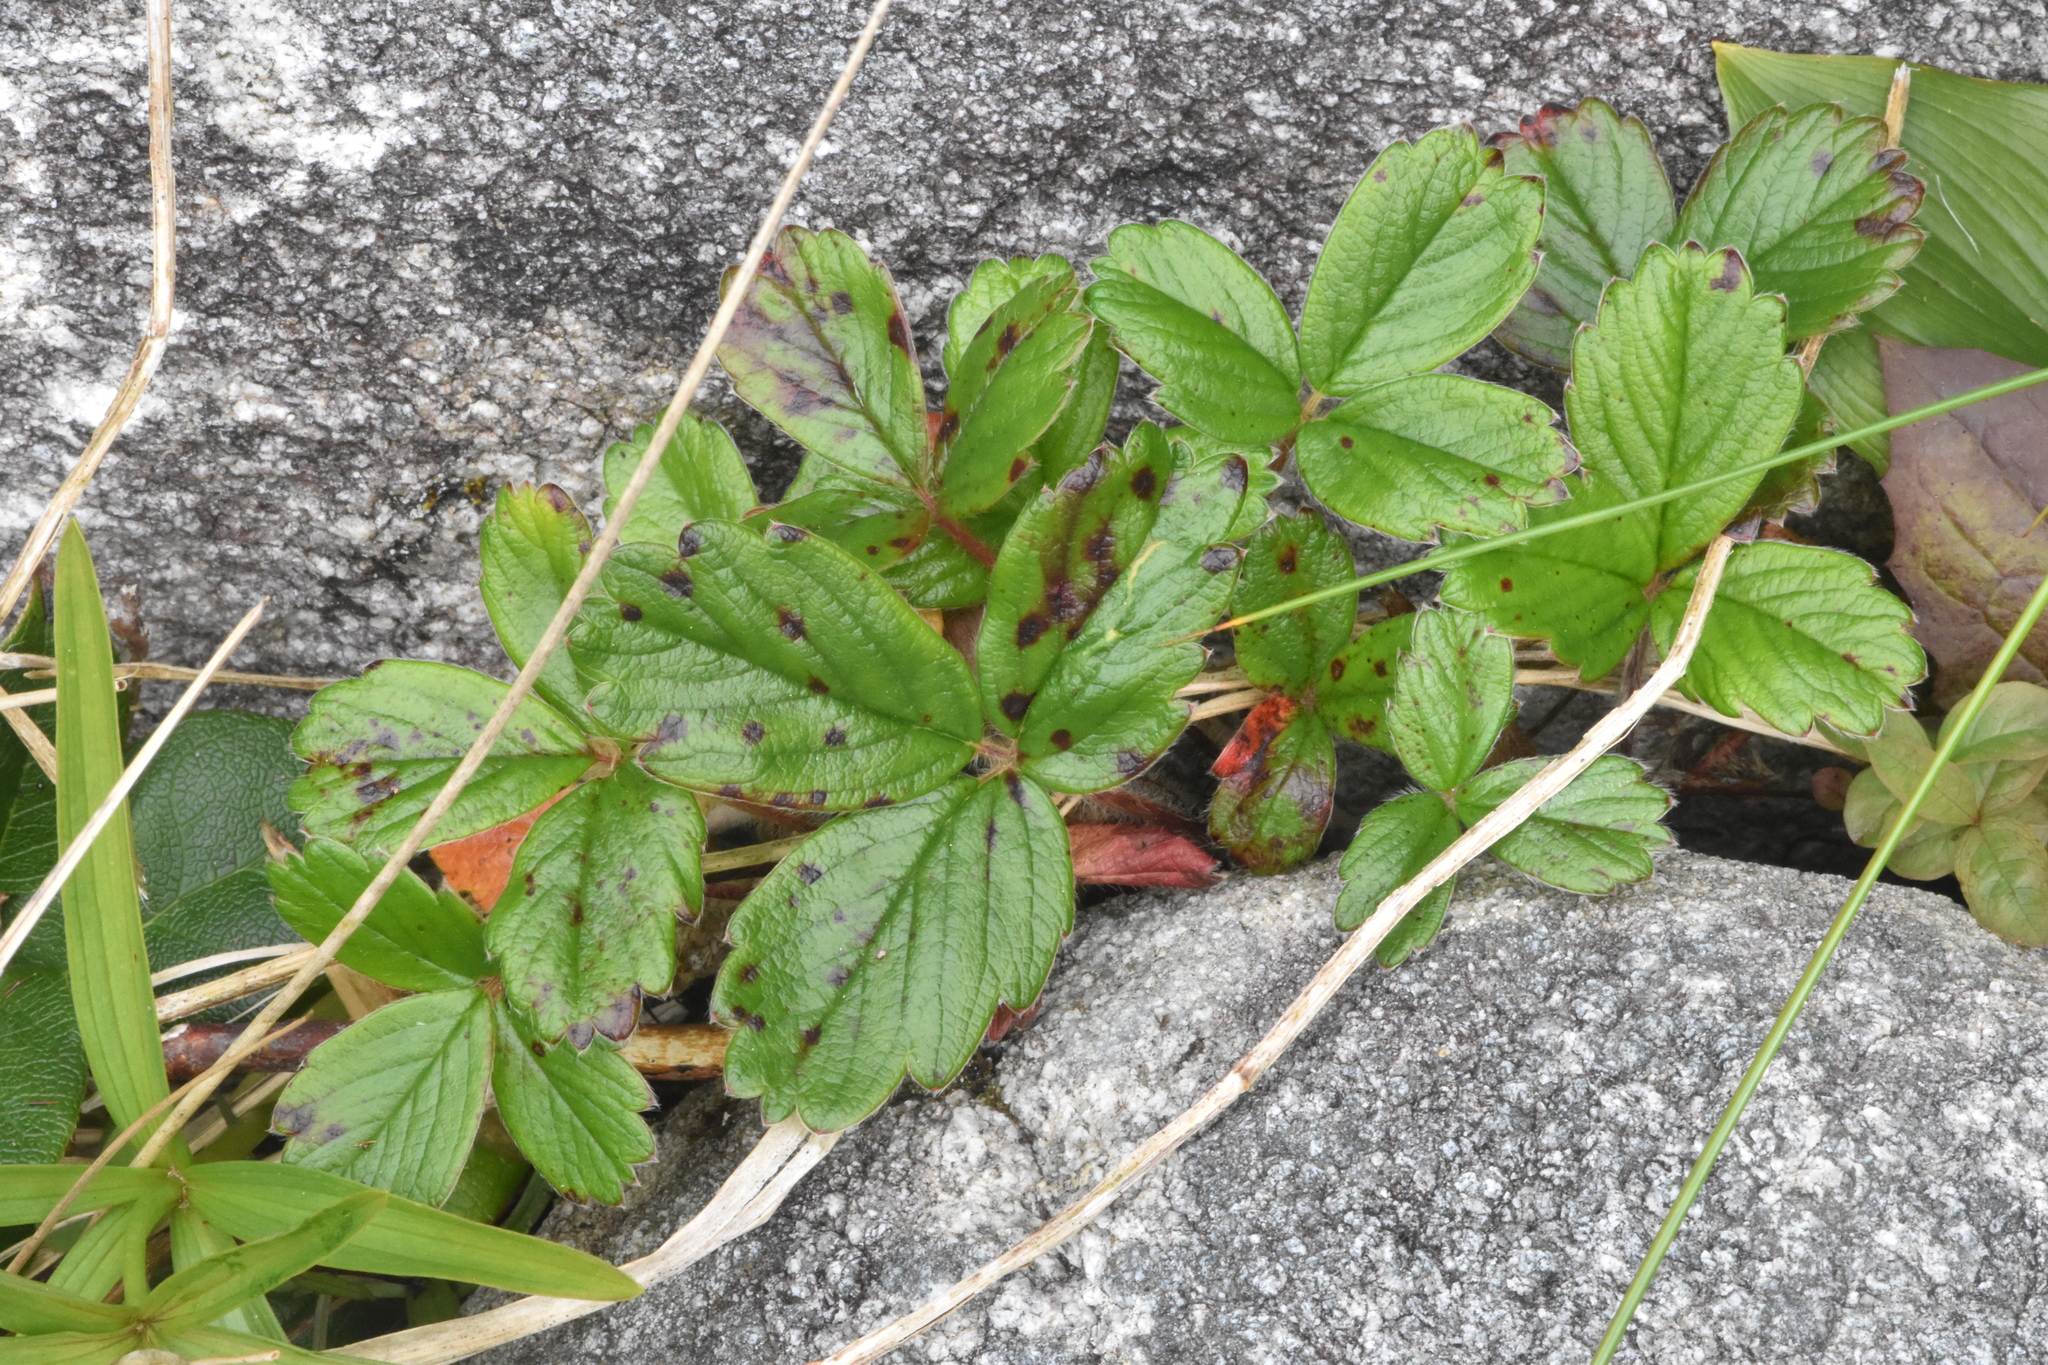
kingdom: Plantae
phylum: Tracheophyta
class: Magnoliopsida
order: Rosales
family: Rosaceae
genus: Fragaria
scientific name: Fragaria chiloensis
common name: Beach strawberry
